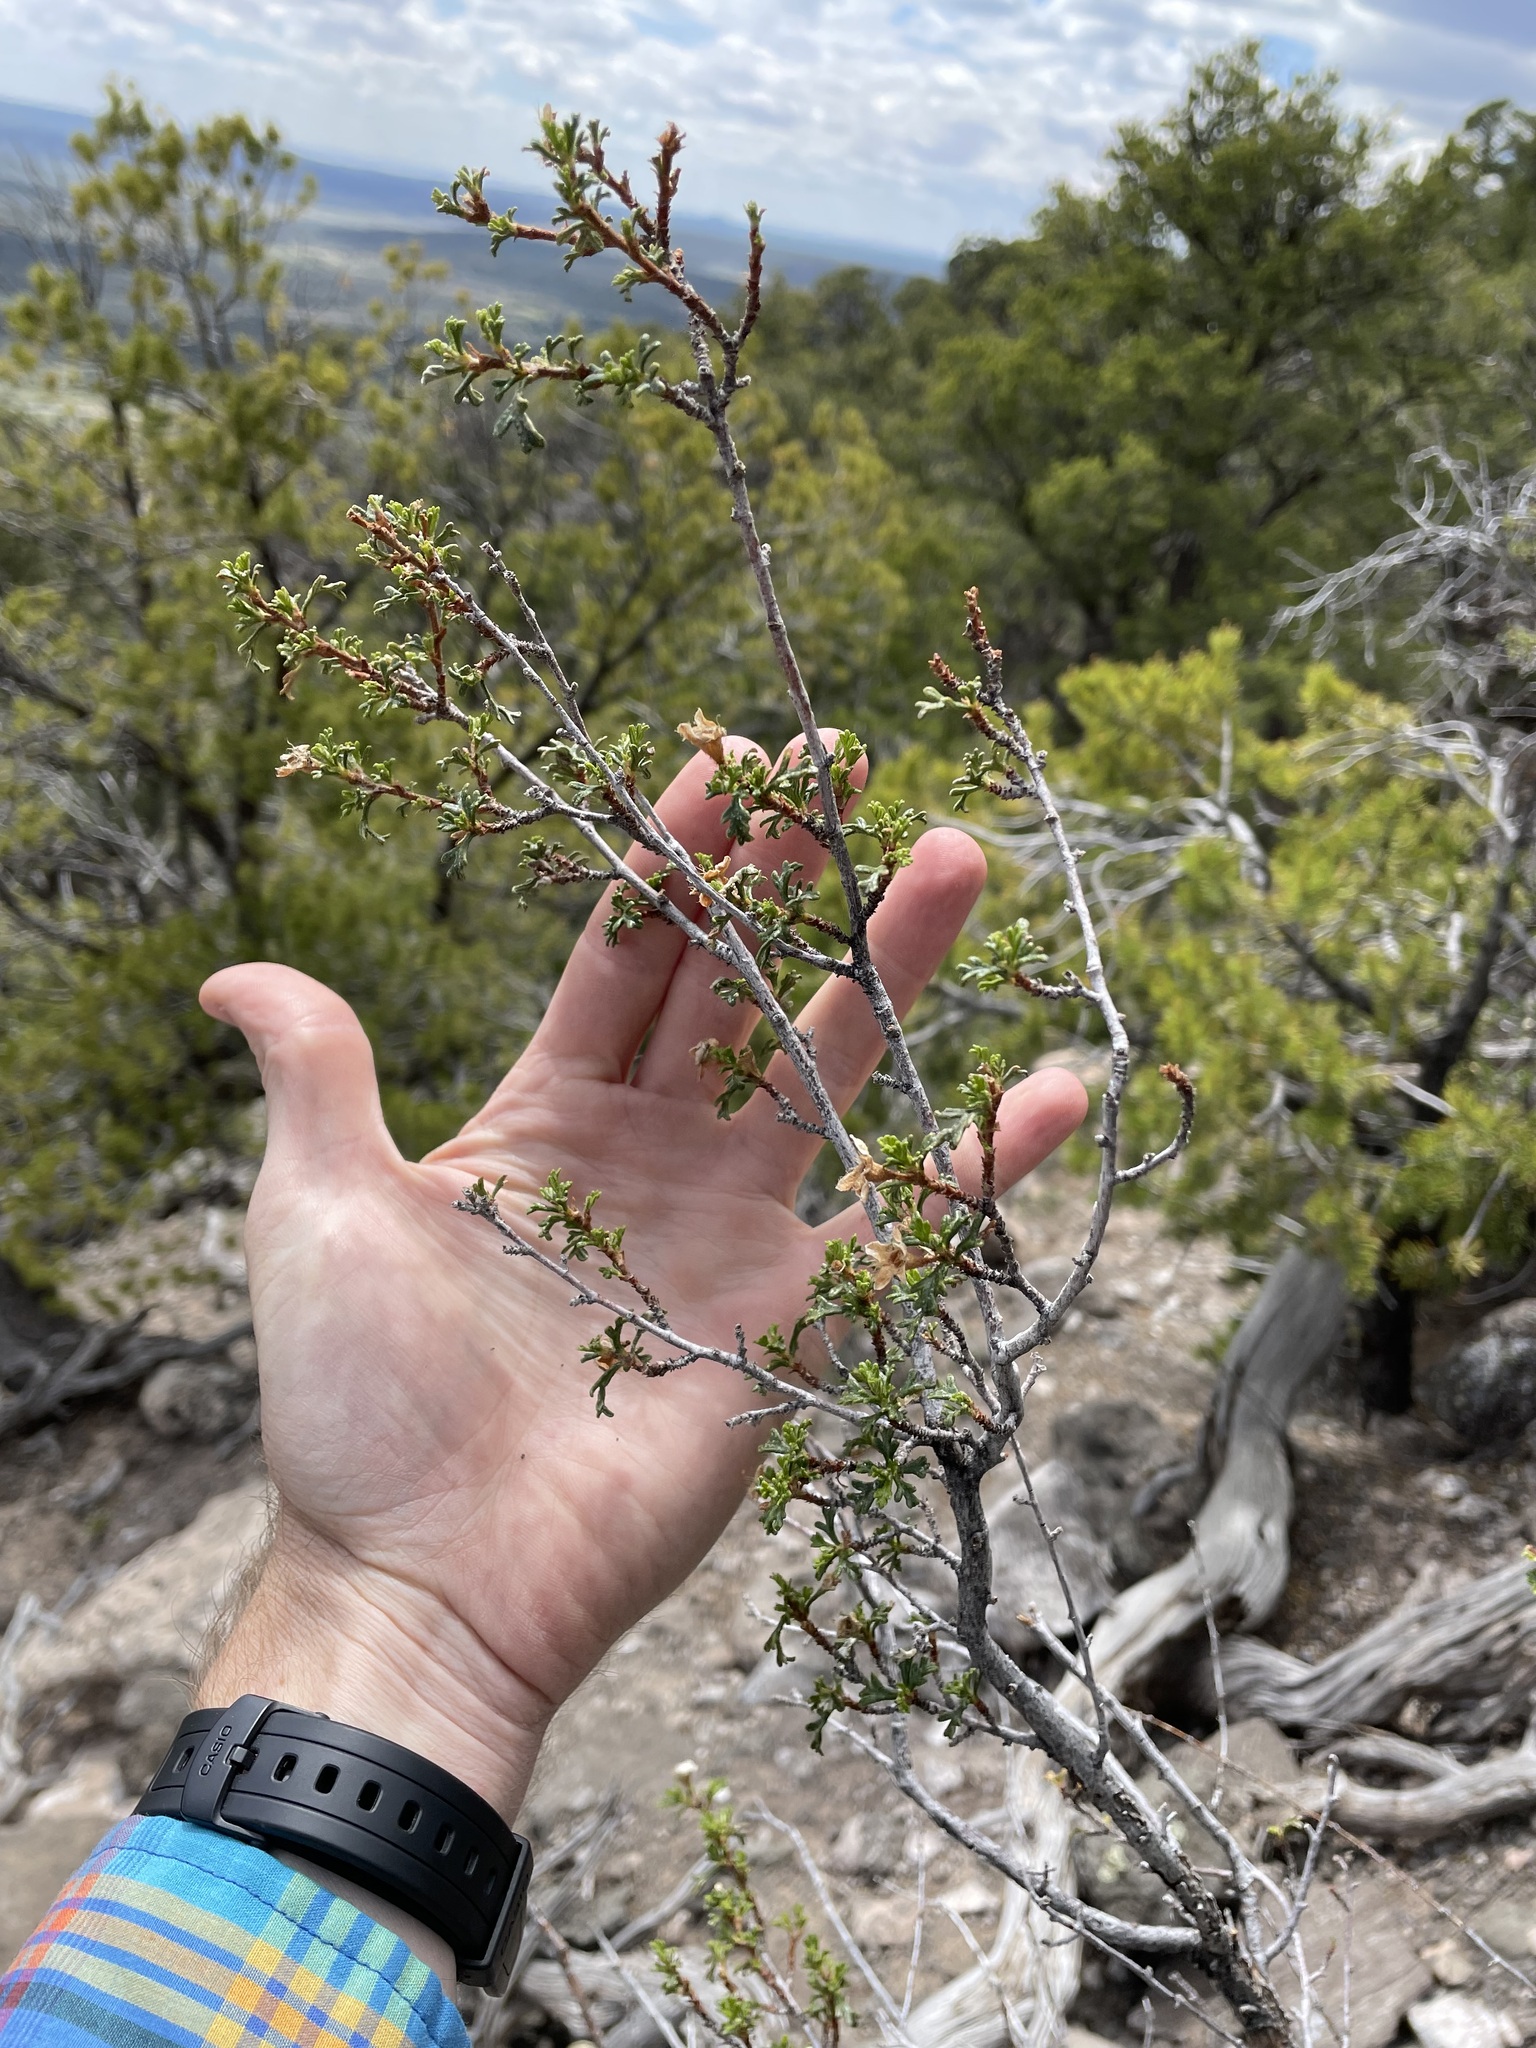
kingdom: Plantae
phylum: Tracheophyta
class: Magnoliopsida
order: Rosales
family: Rosaceae
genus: Purshia
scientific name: Purshia stansburiana
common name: Stansbury's cliffrose
